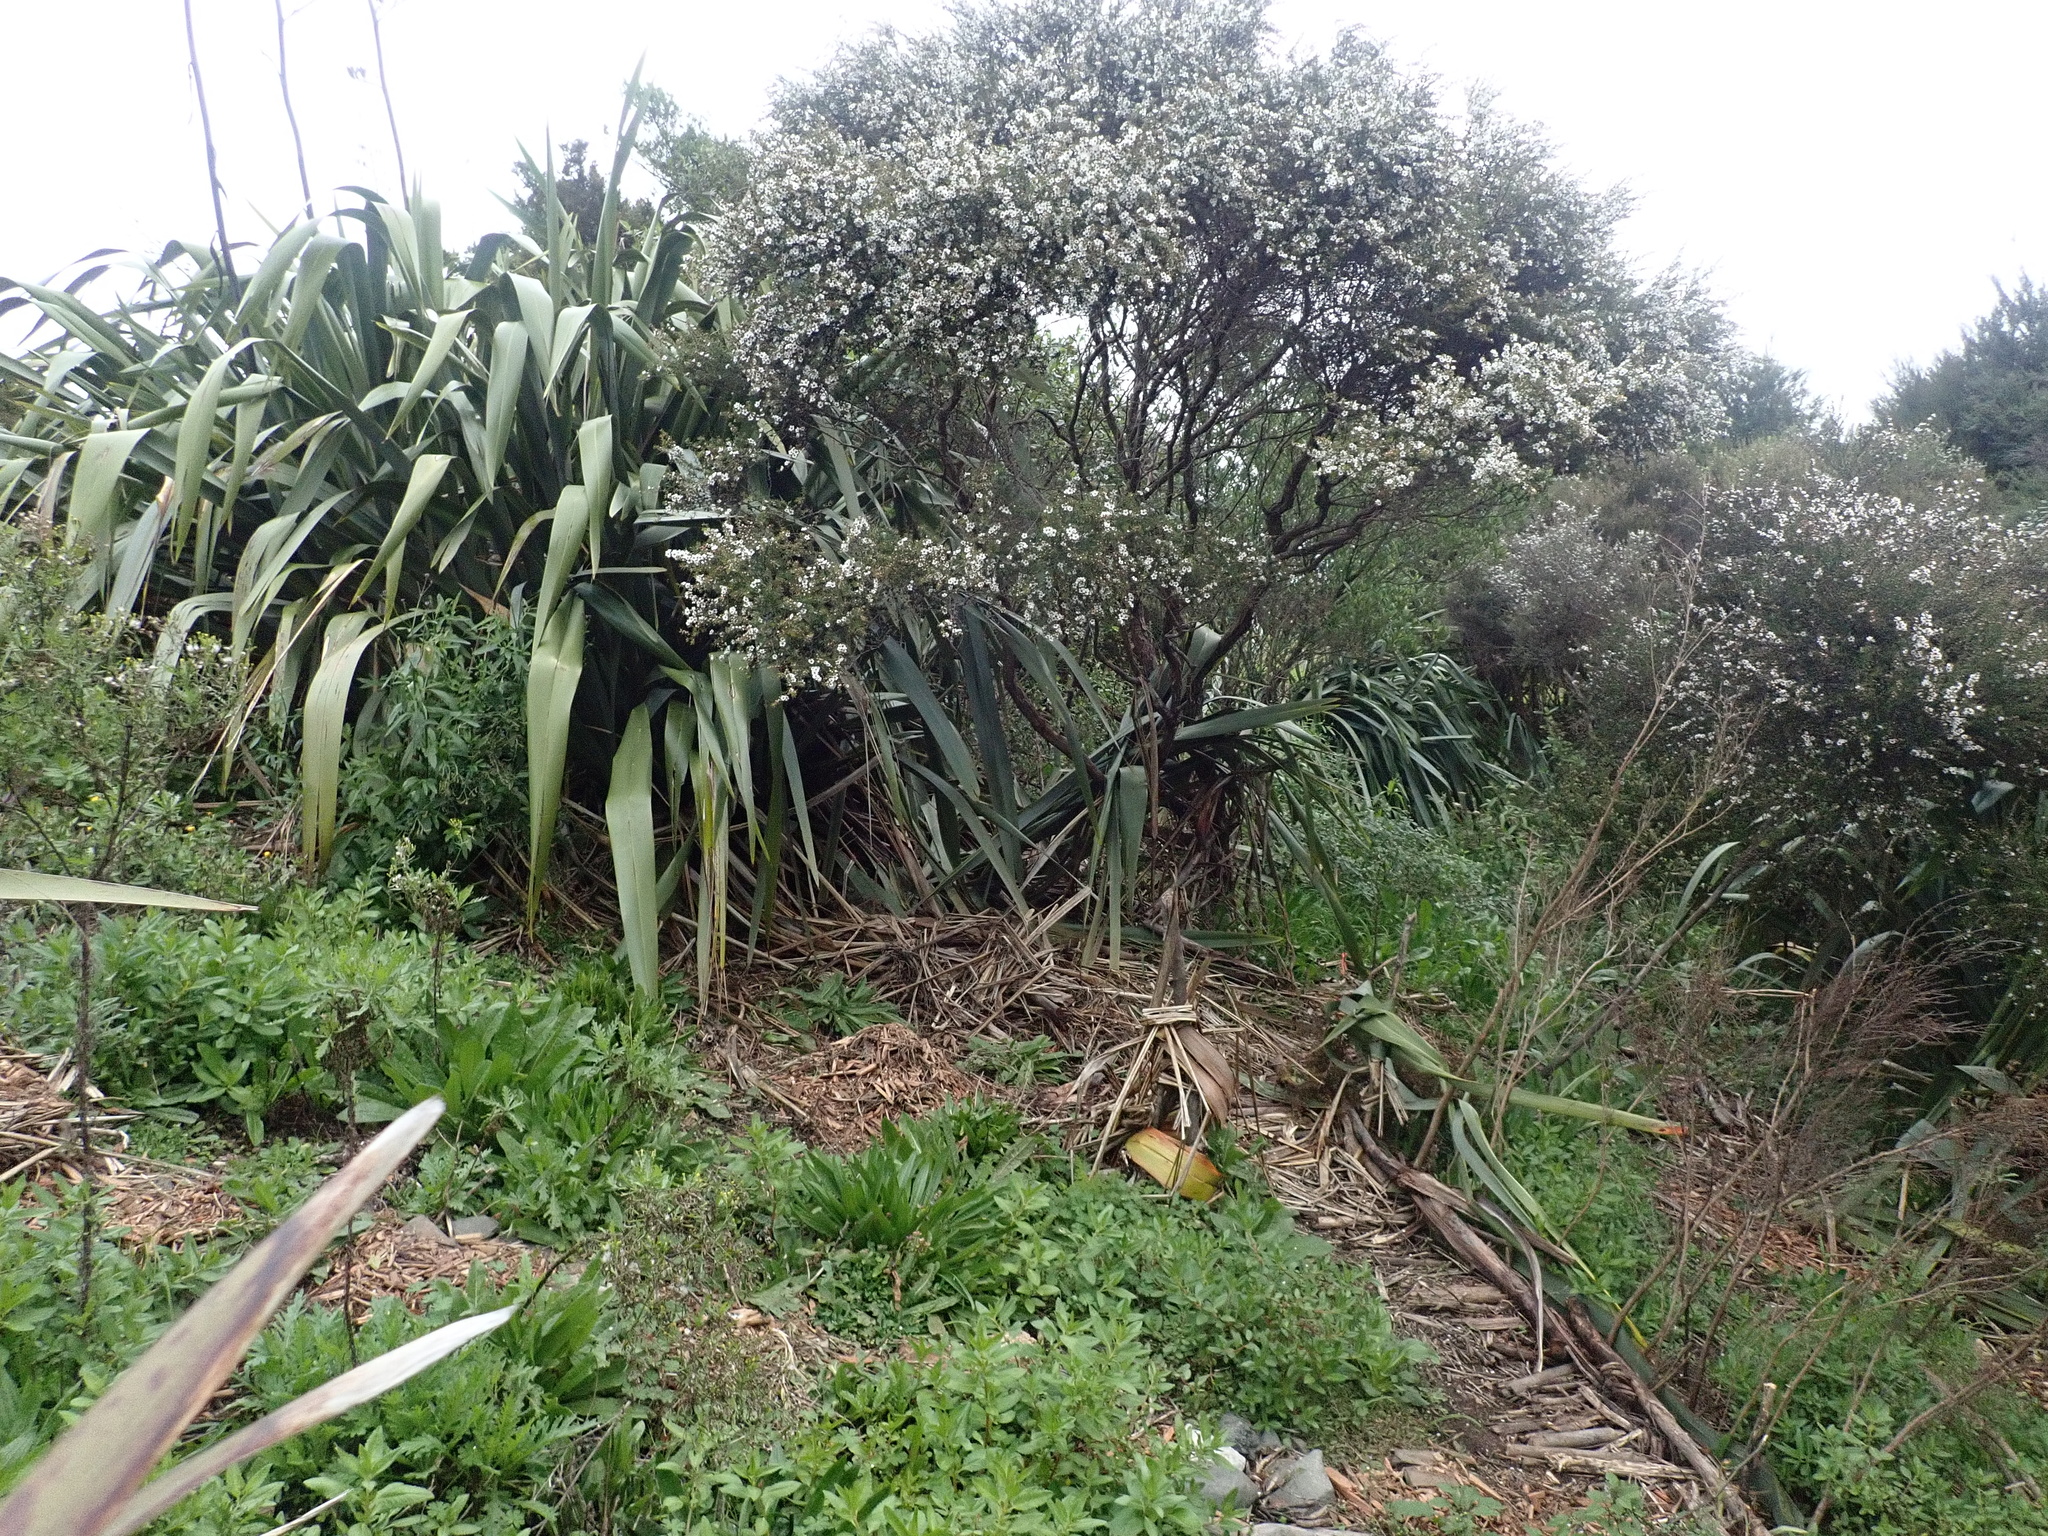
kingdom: Plantae
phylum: Tracheophyta
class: Magnoliopsida
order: Myrtales
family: Myrtaceae
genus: Leptospermum
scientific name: Leptospermum scoparium
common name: Broom tea-tree
